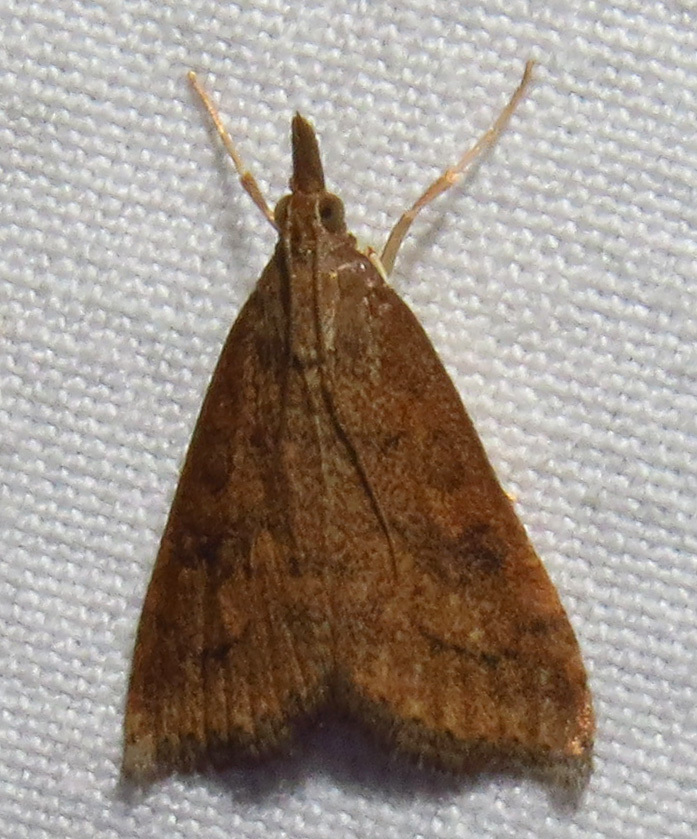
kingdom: Animalia
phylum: Arthropoda
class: Insecta
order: Lepidoptera
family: Crambidae
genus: Udea
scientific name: Udea rubigalis
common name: Celery leaftier moth
